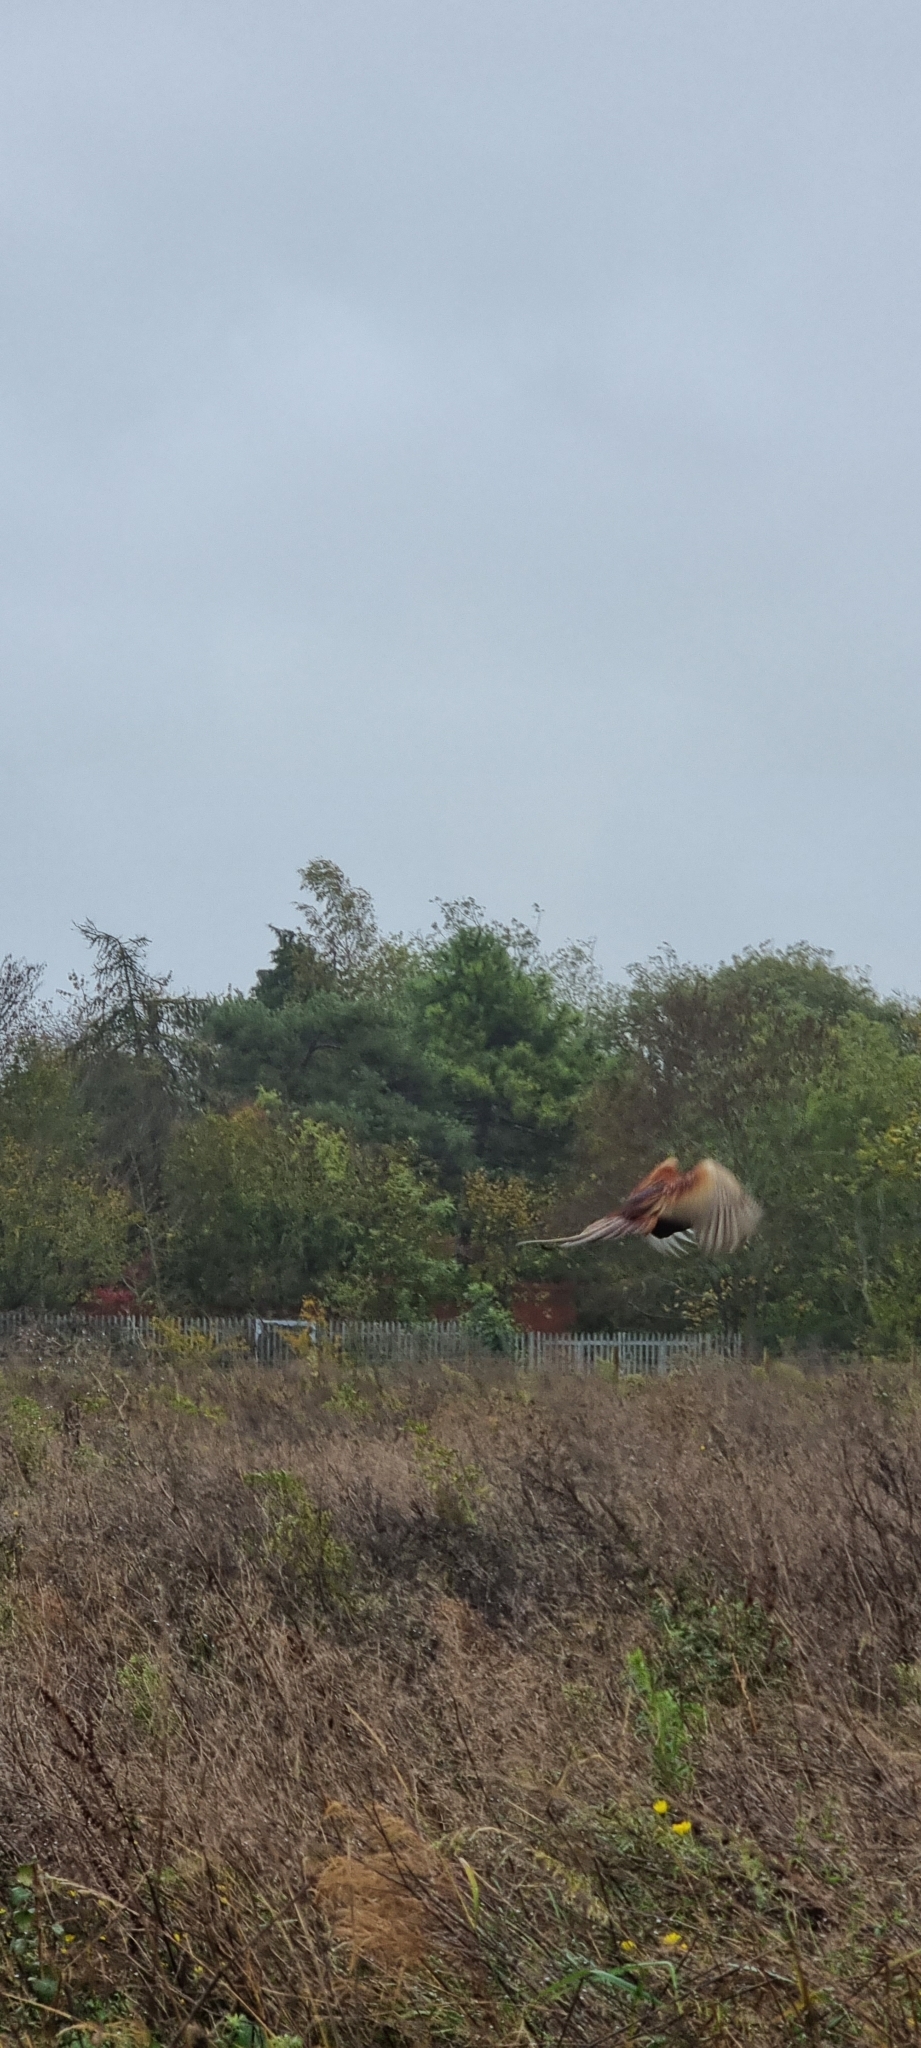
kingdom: Animalia
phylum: Chordata
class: Aves
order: Galliformes
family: Phasianidae
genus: Phasianus
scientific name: Phasianus colchicus
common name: Common pheasant
